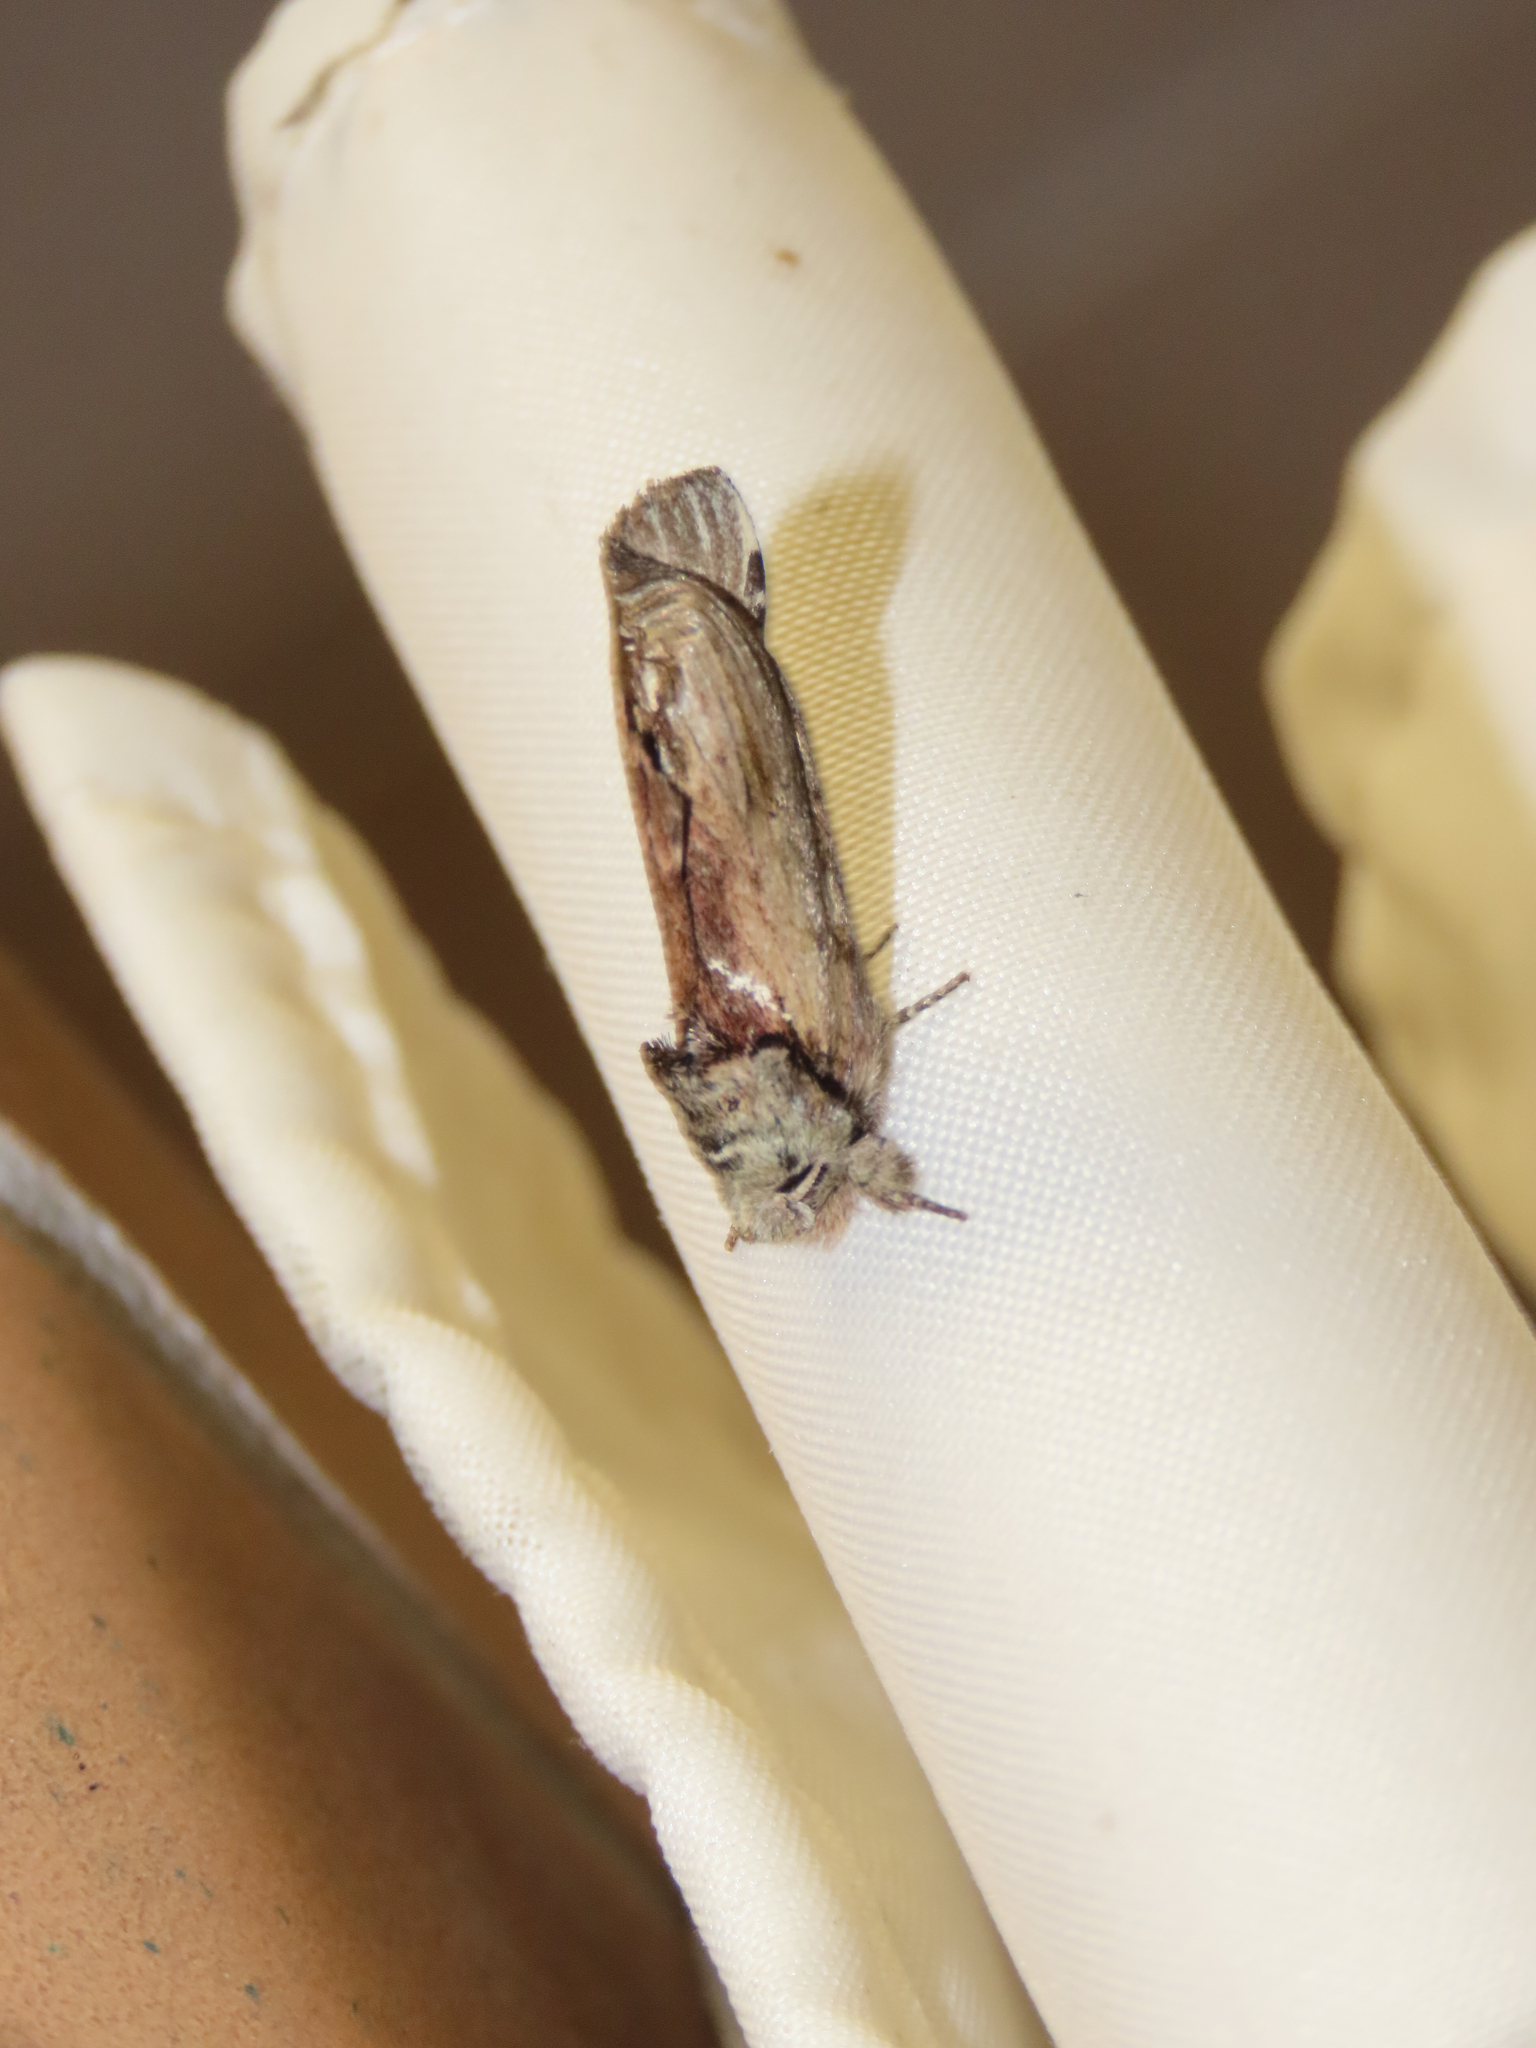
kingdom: Animalia
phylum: Arthropoda
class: Insecta
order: Lepidoptera
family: Notodontidae
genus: Schizura
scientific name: Schizura
